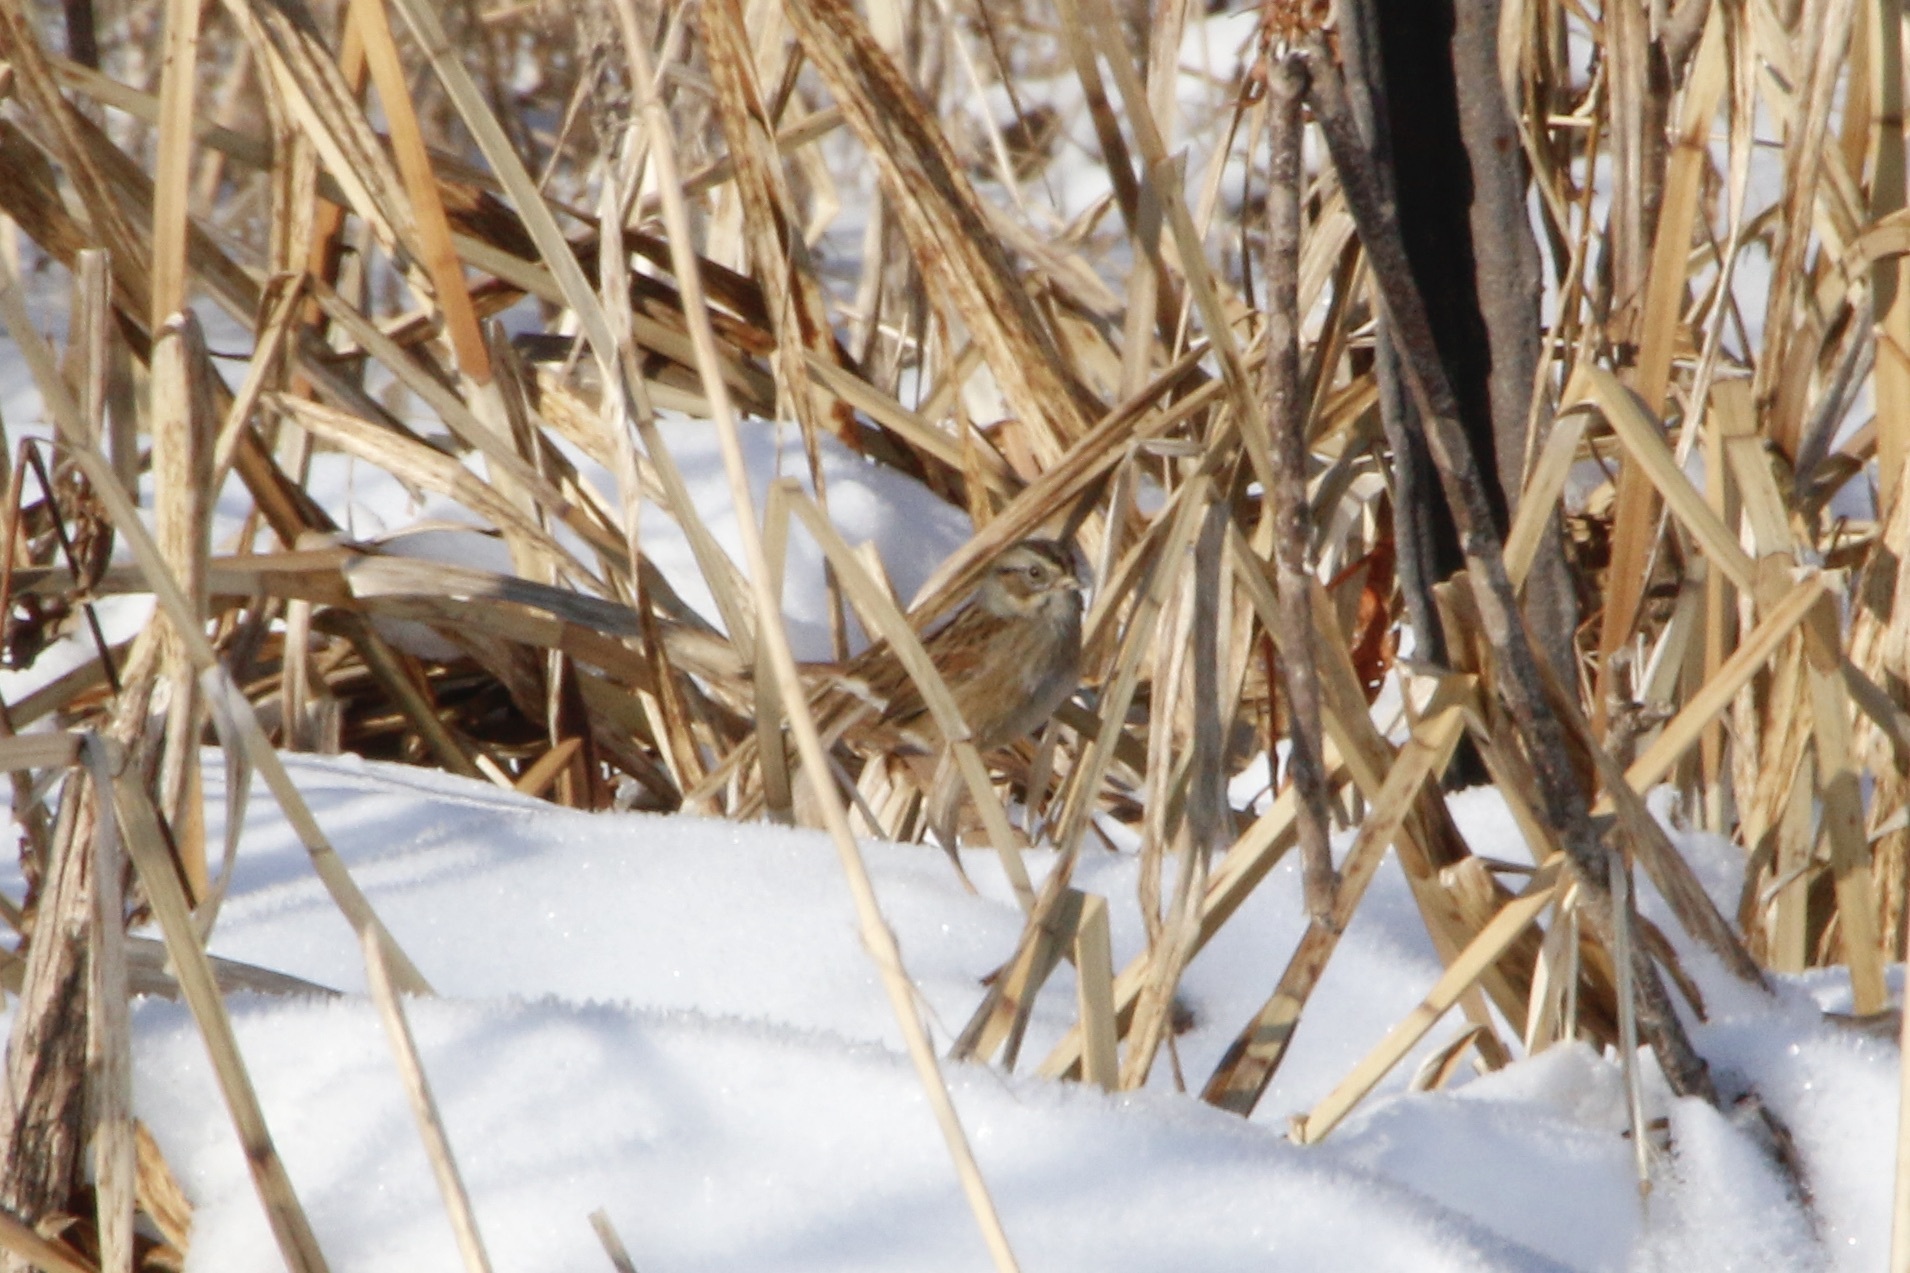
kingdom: Animalia
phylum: Chordata
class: Aves
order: Passeriformes
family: Passerellidae
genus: Melospiza
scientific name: Melospiza georgiana
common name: Swamp sparrow
